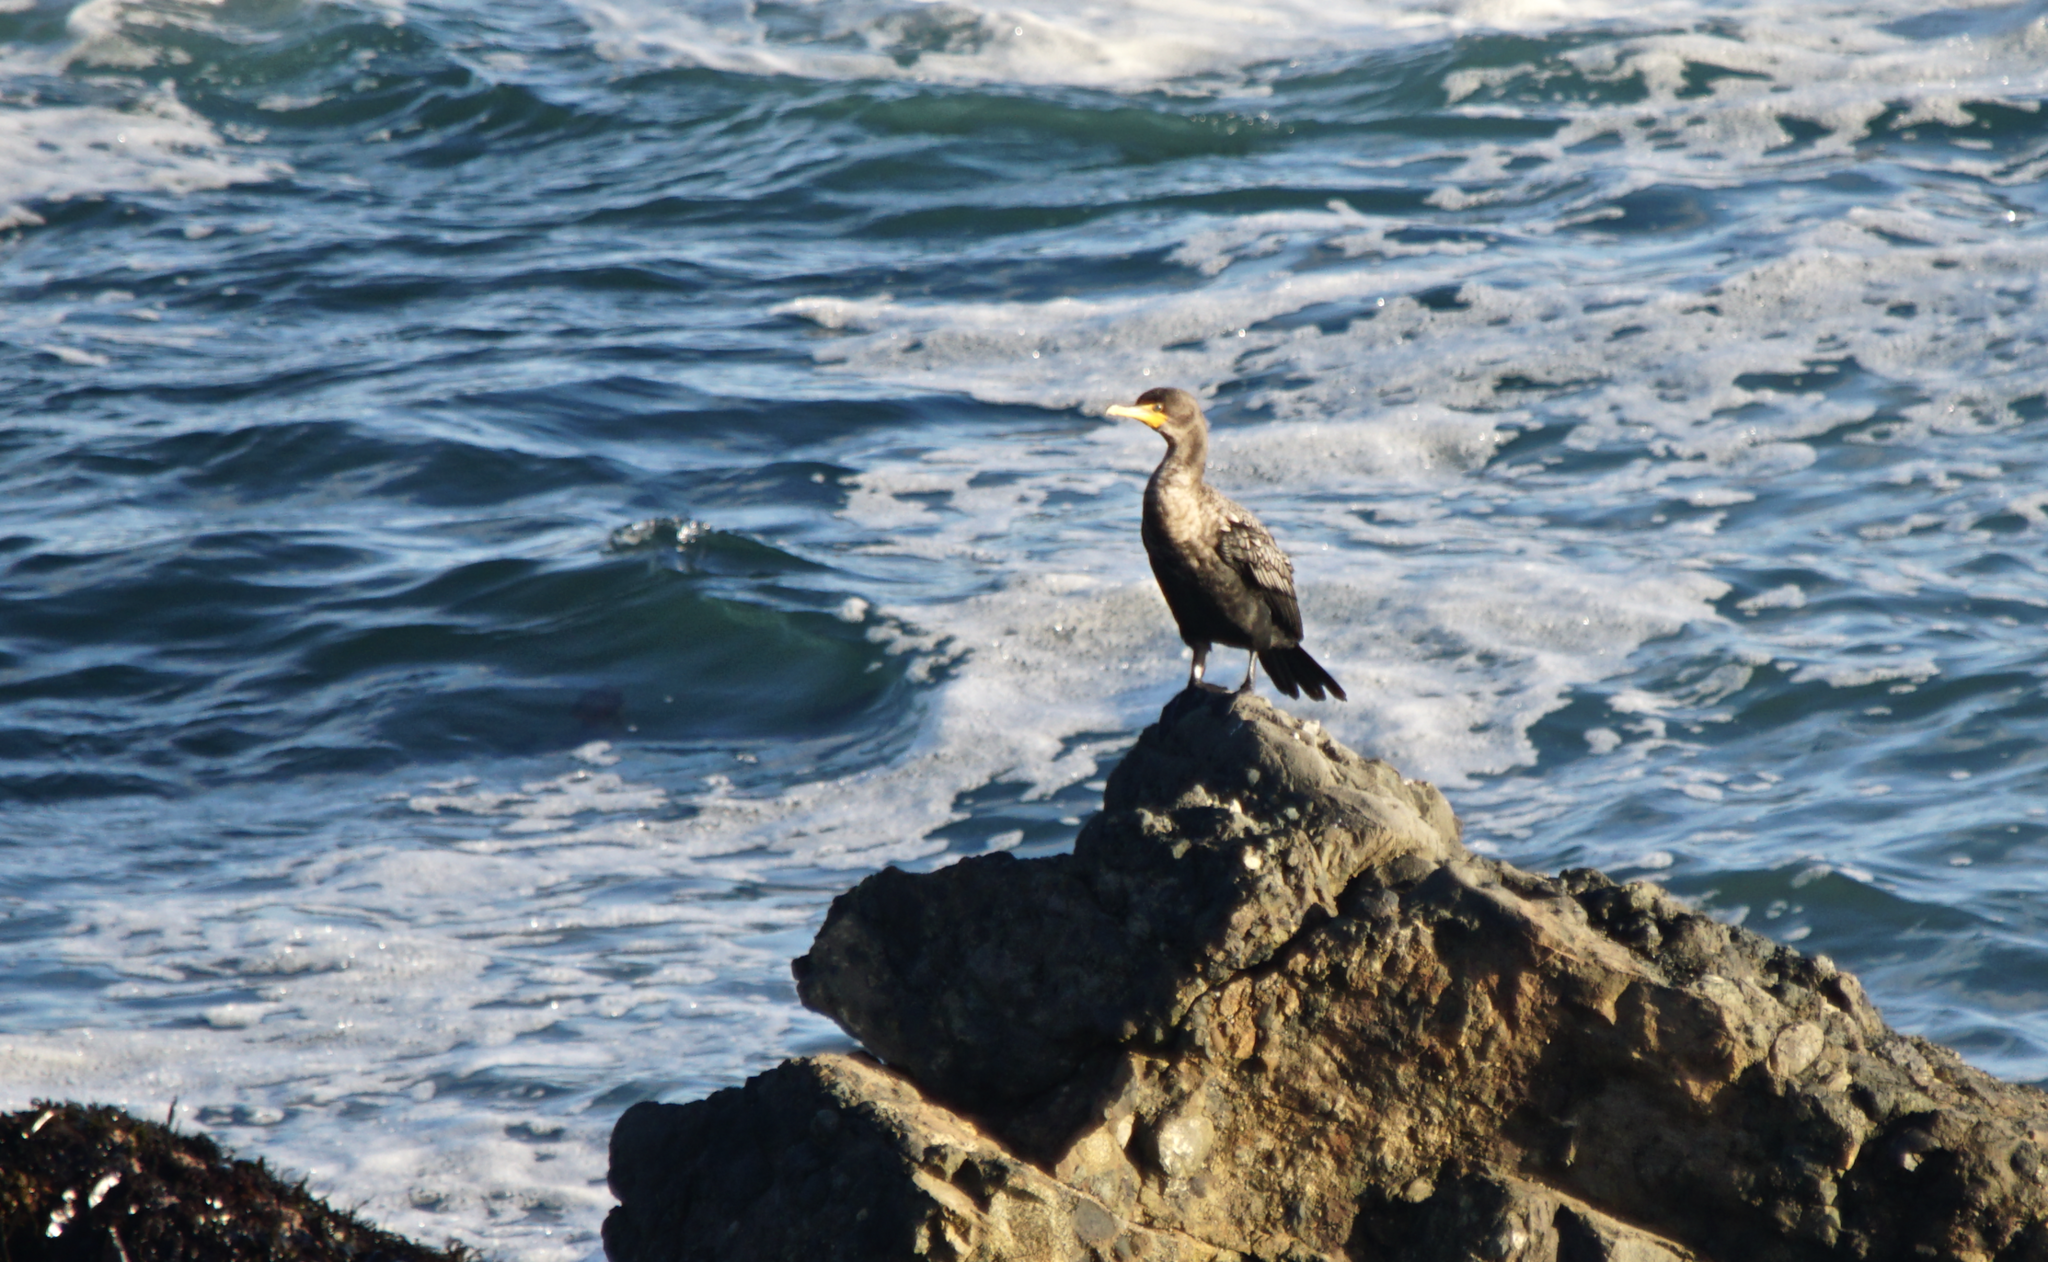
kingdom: Animalia
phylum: Chordata
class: Aves
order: Suliformes
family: Phalacrocoracidae
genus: Phalacrocorax
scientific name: Phalacrocorax auritus
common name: Double-crested cormorant
